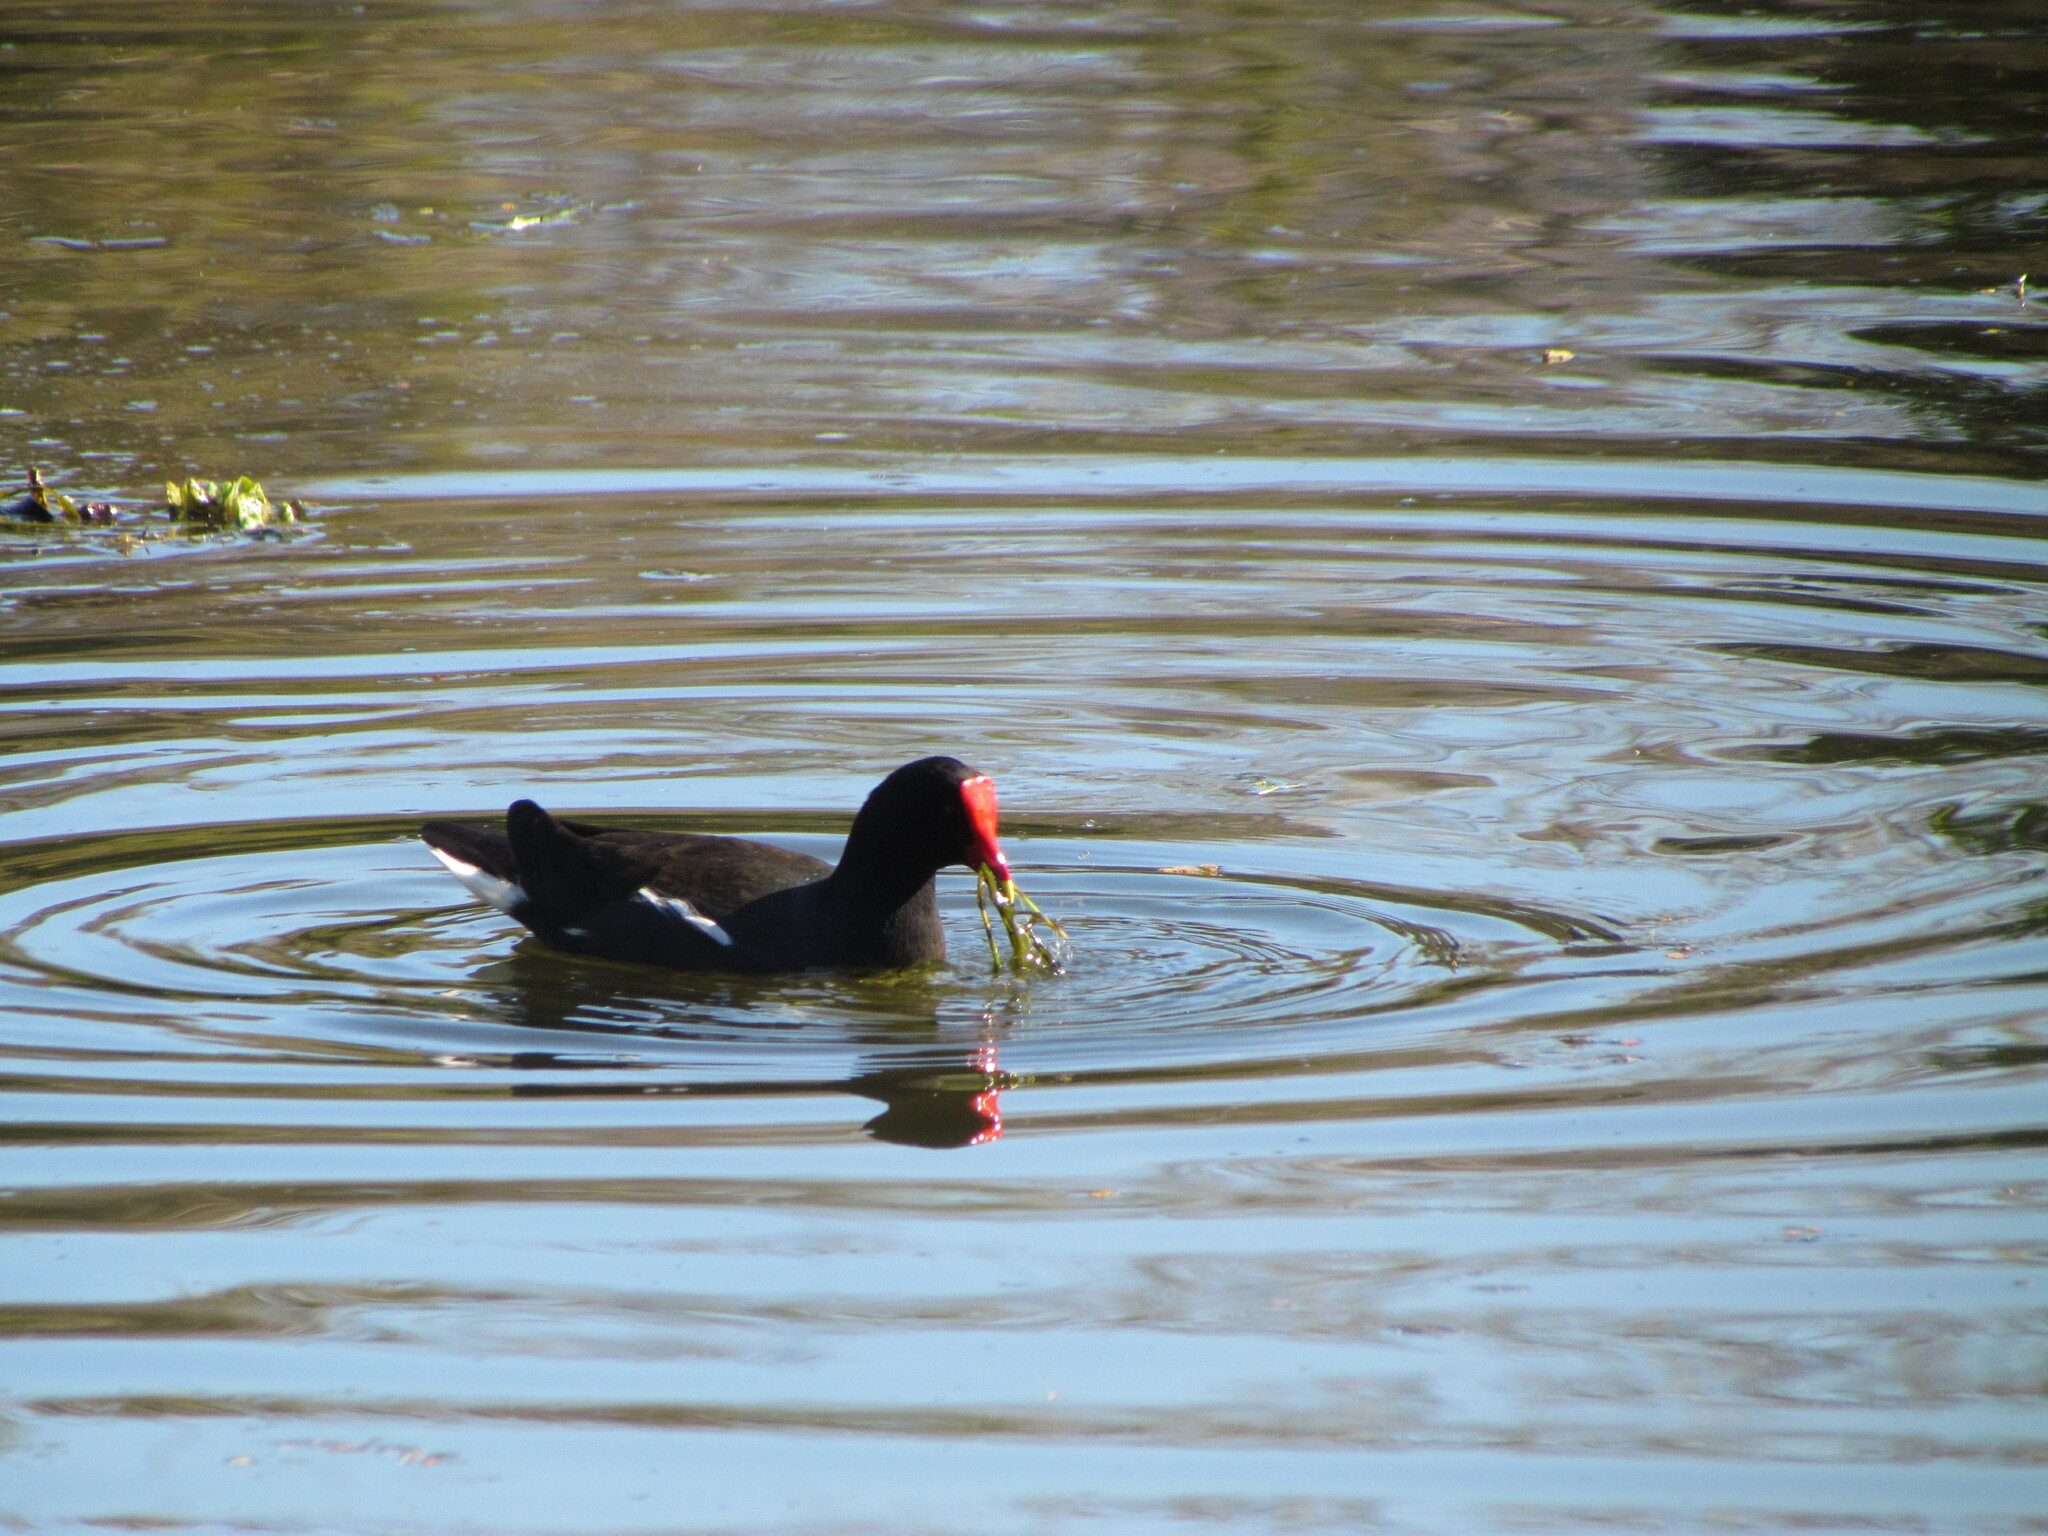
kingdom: Animalia
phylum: Chordata
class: Aves
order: Gruiformes
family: Rallidae
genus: Gallinula
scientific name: Gallinula chloropus
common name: Common moorhen
